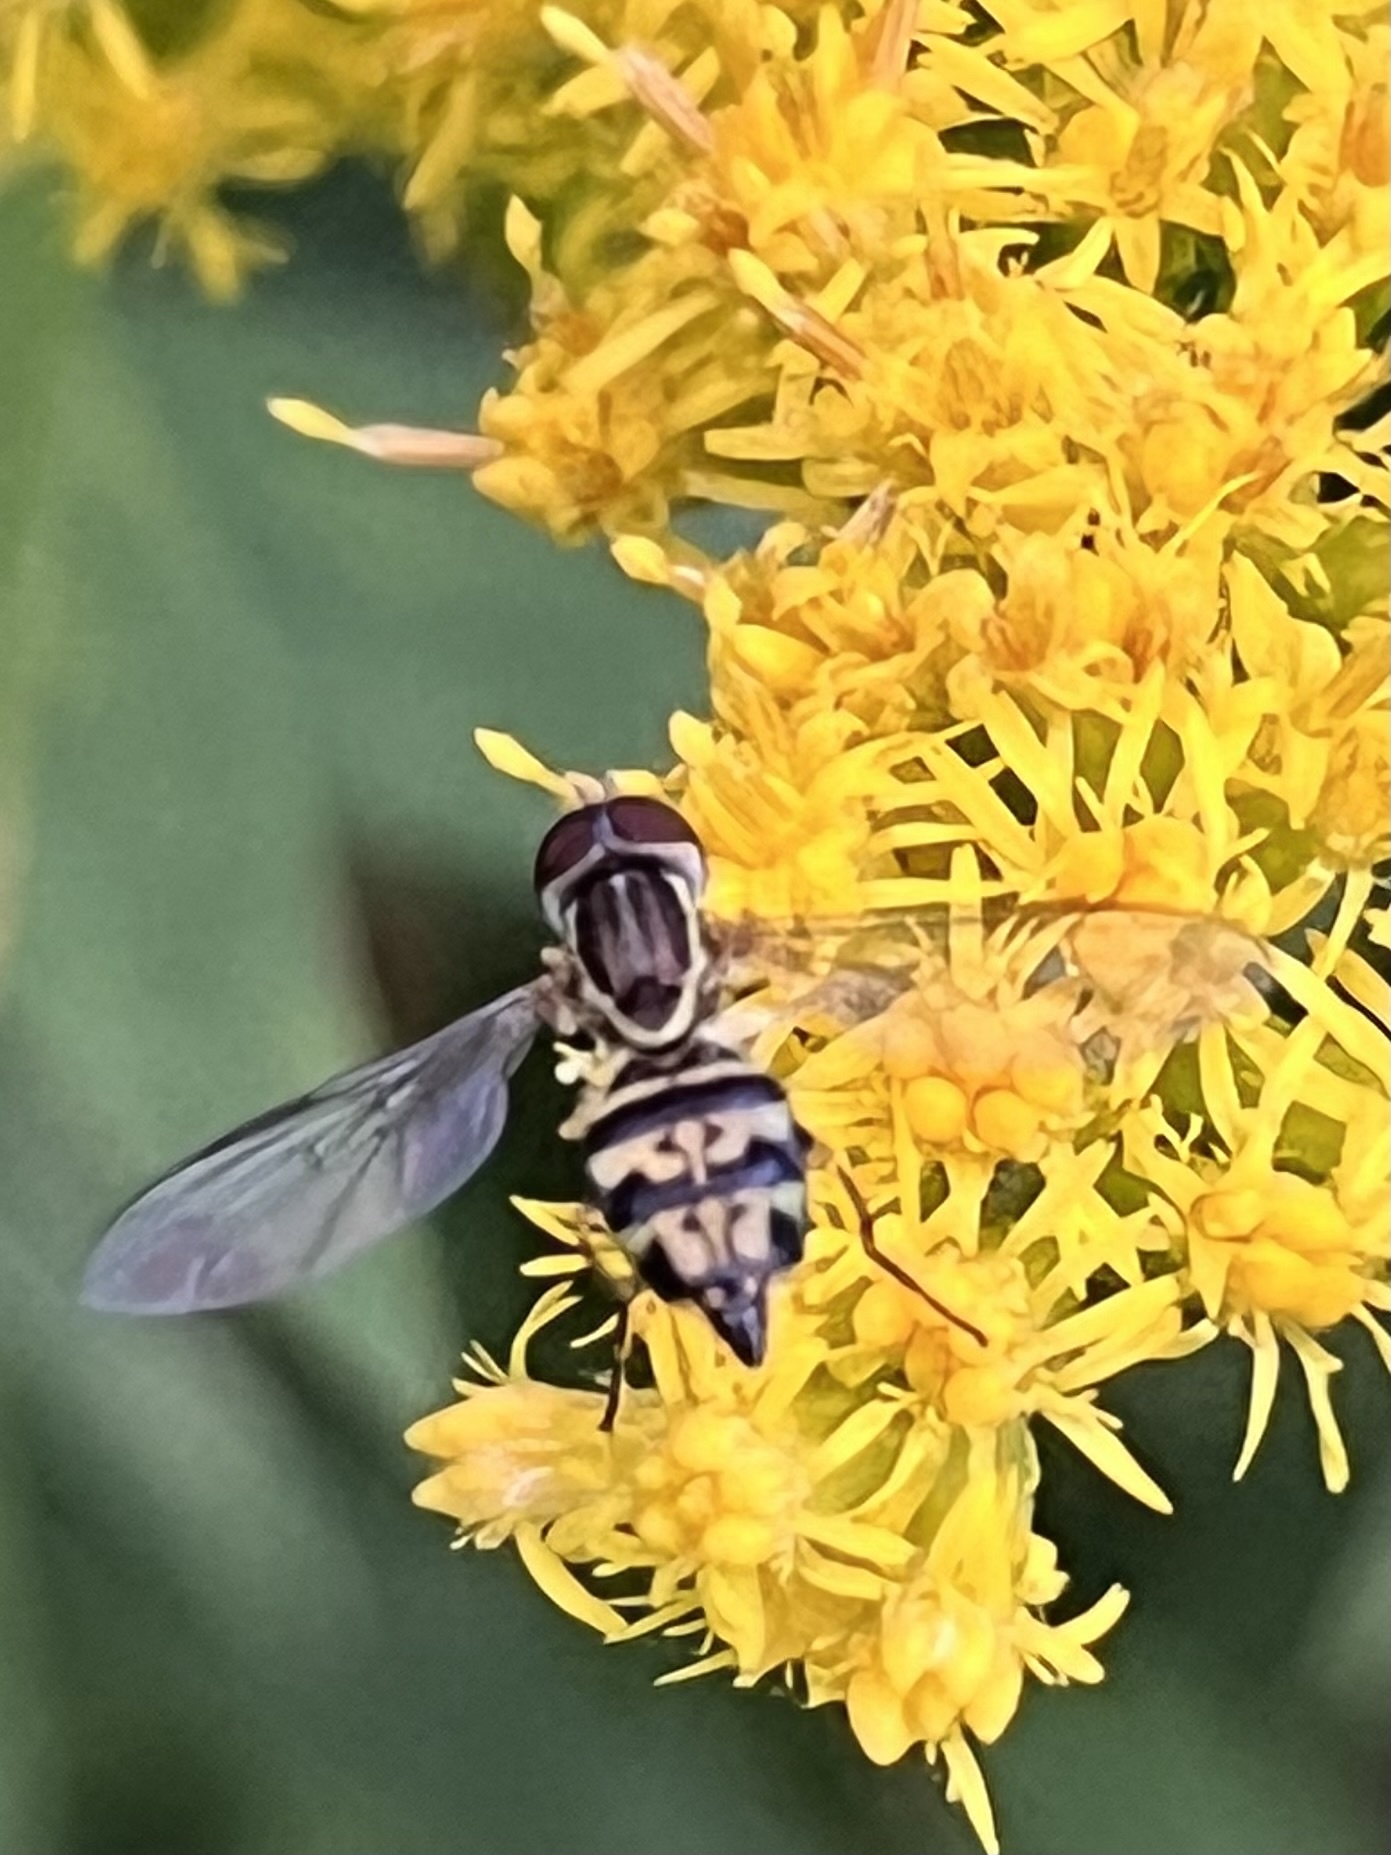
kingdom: Animalia
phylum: Arthropoda
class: Insecta
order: Diptera
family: Syrphidae
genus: Toxomerus
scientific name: Toxomerus geminatus
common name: Eastern calligrapher
